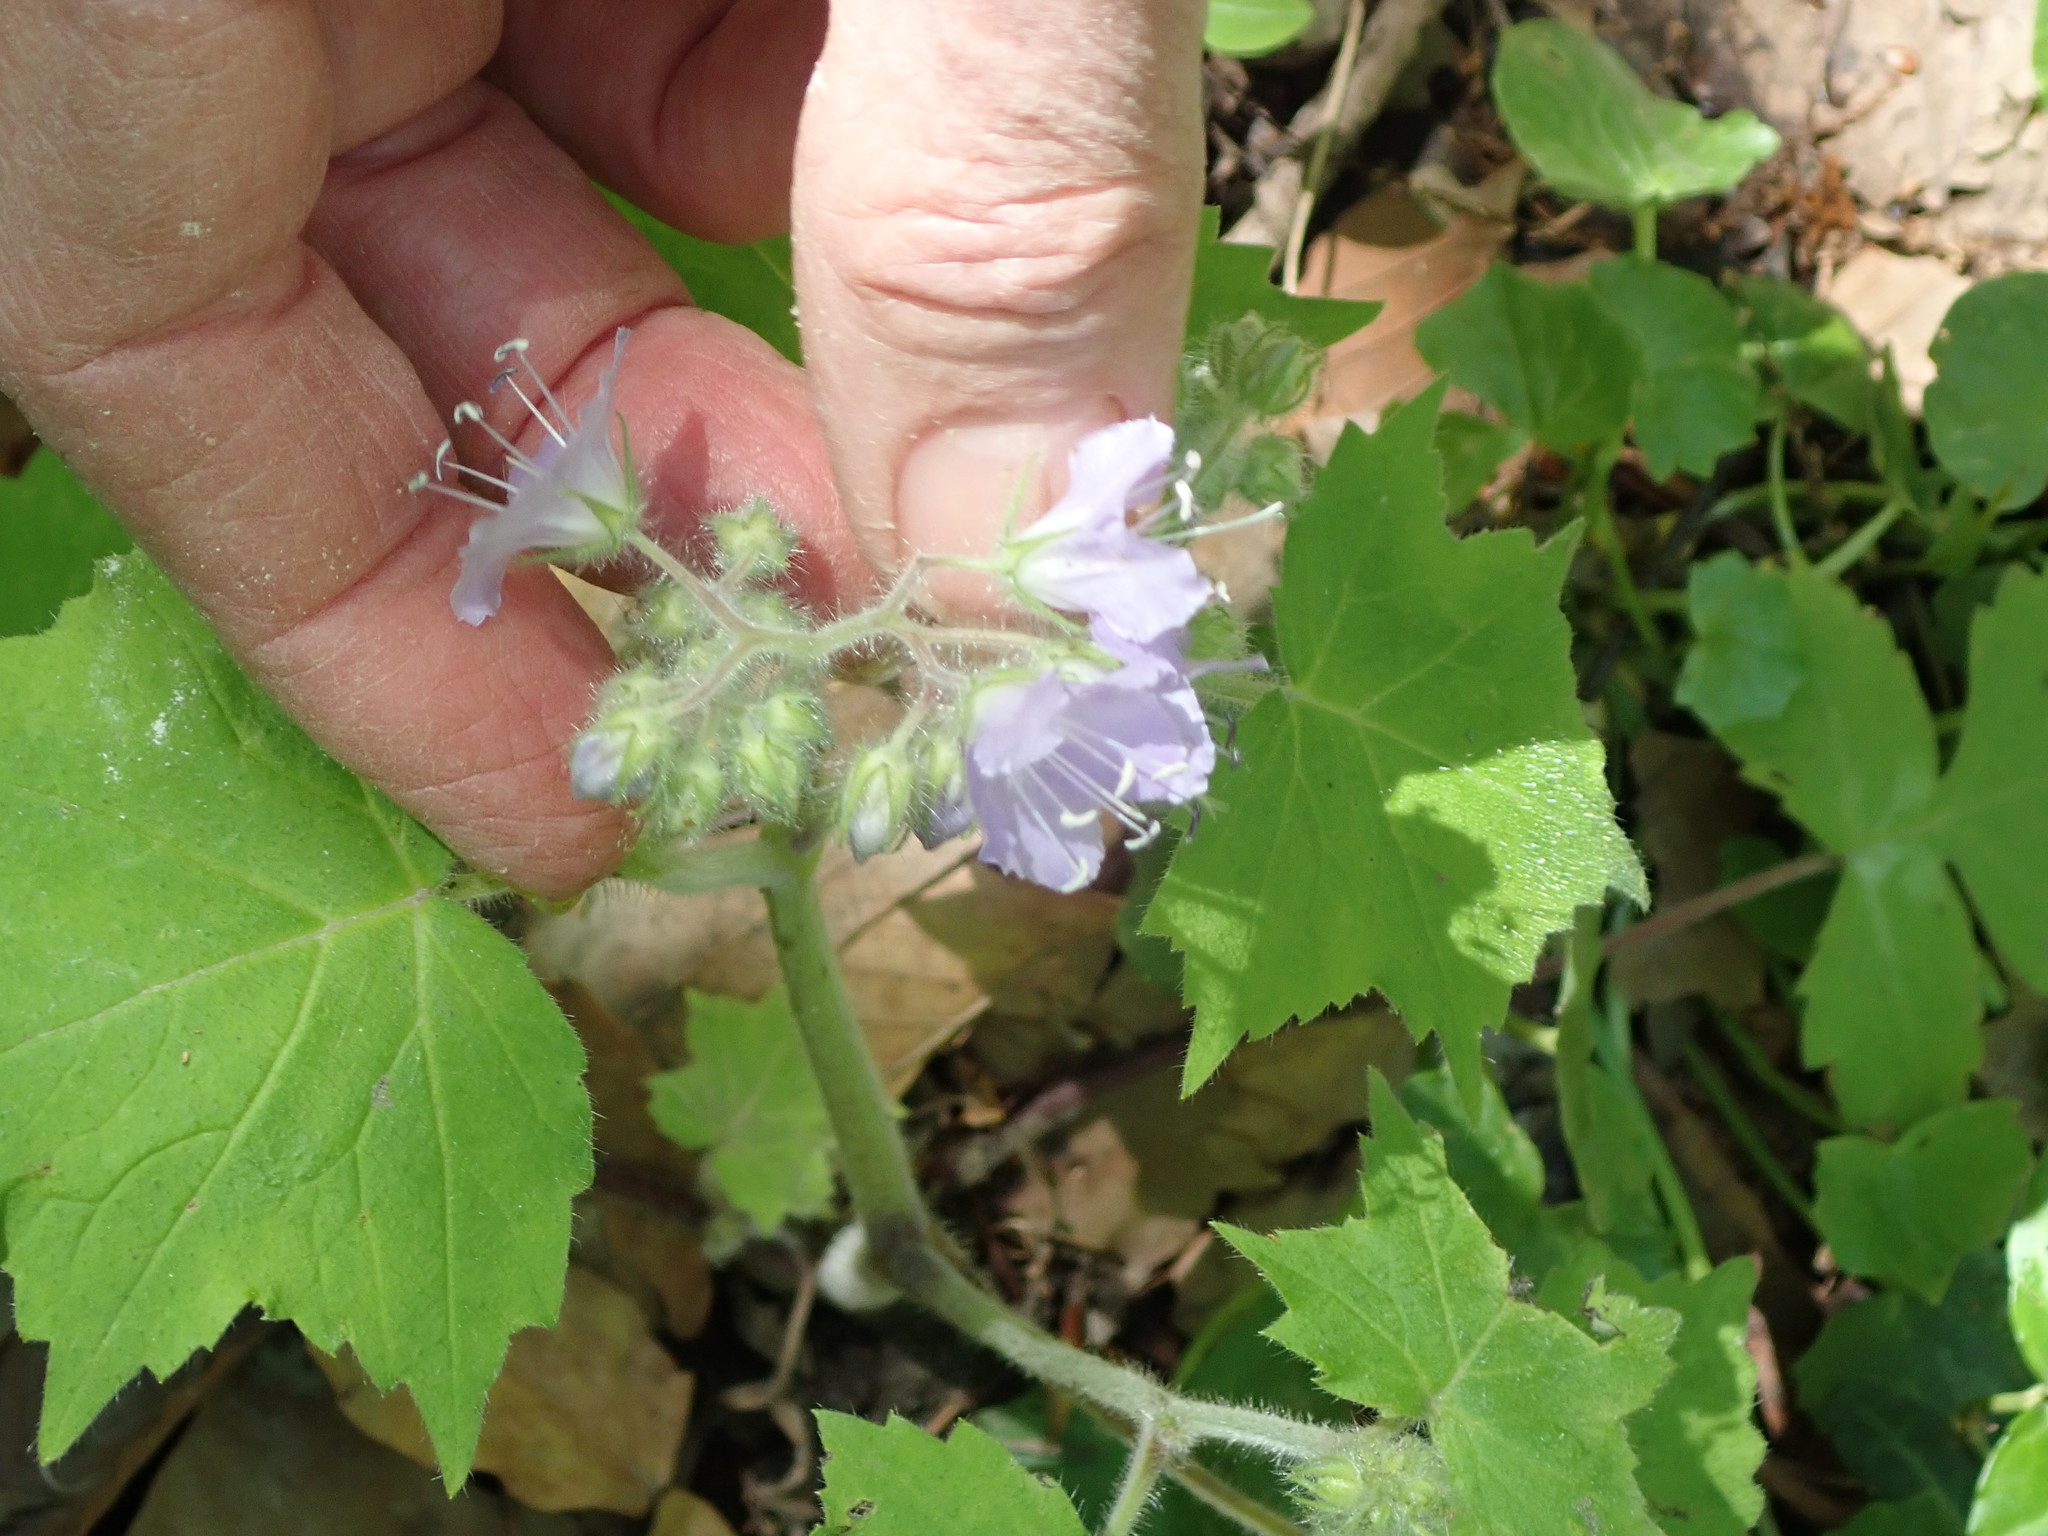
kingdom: Plantae
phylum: Tracheophyta
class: Magnoliopsida
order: Boraginales
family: Hydrophyllaceae
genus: Hydrophyllum
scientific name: Hydrophyllum appendiculatum
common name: Appendaged waterleaf
